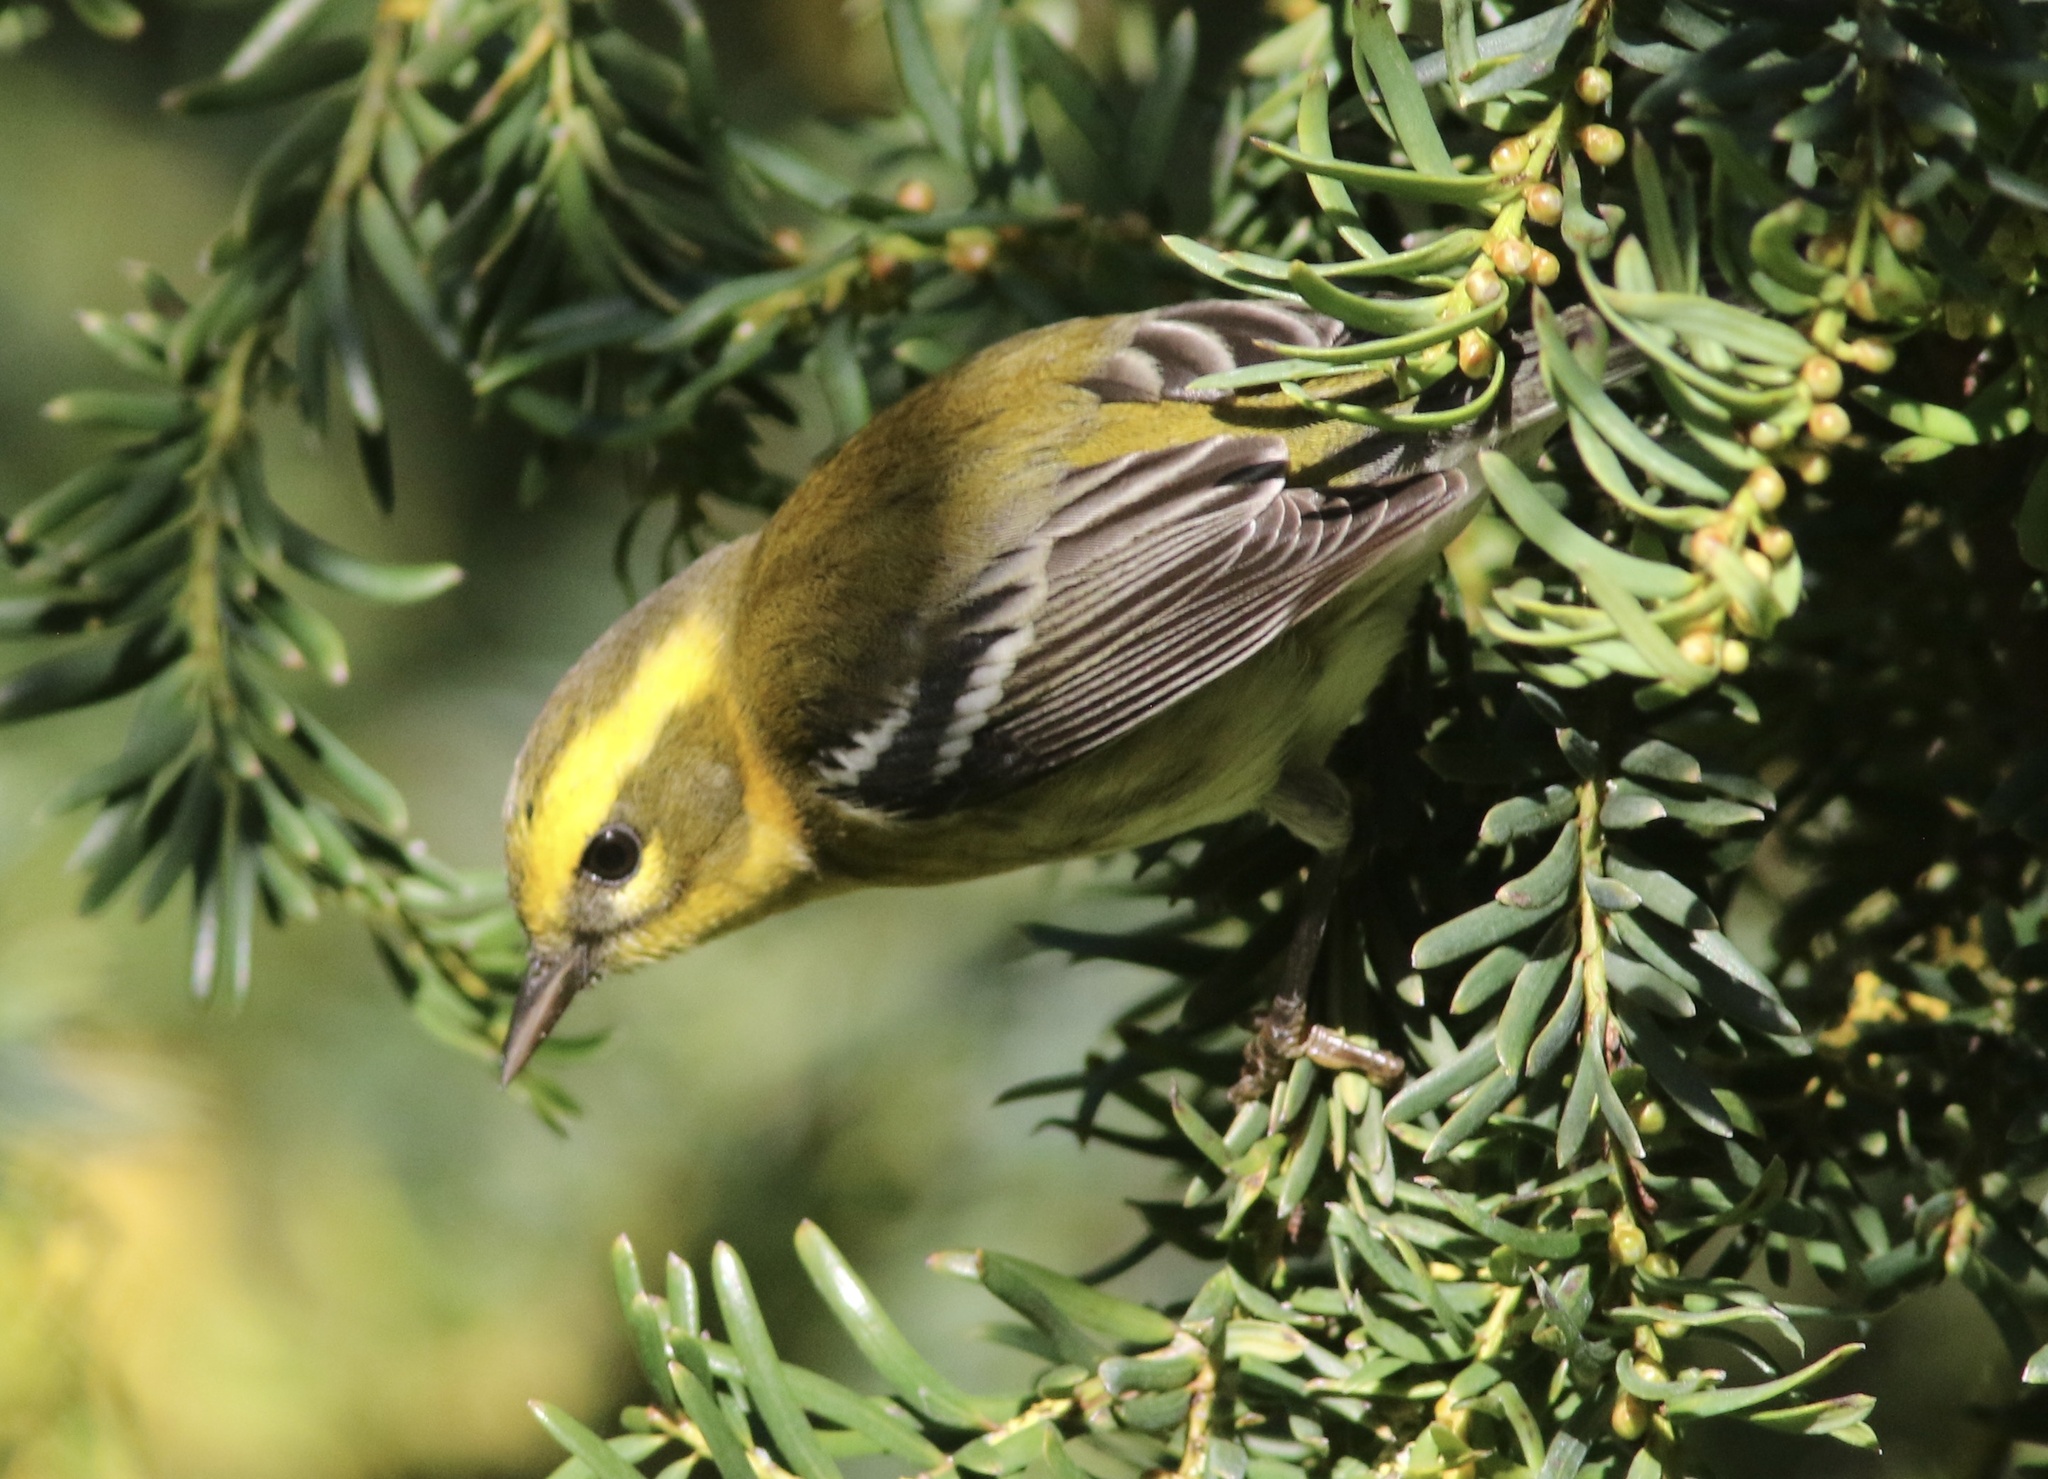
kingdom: Animalia
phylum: Chordata
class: Aves
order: Passeriformes
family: Parulidae
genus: Setophaga
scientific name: Setophaga townsendi
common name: Townsend's warbler
